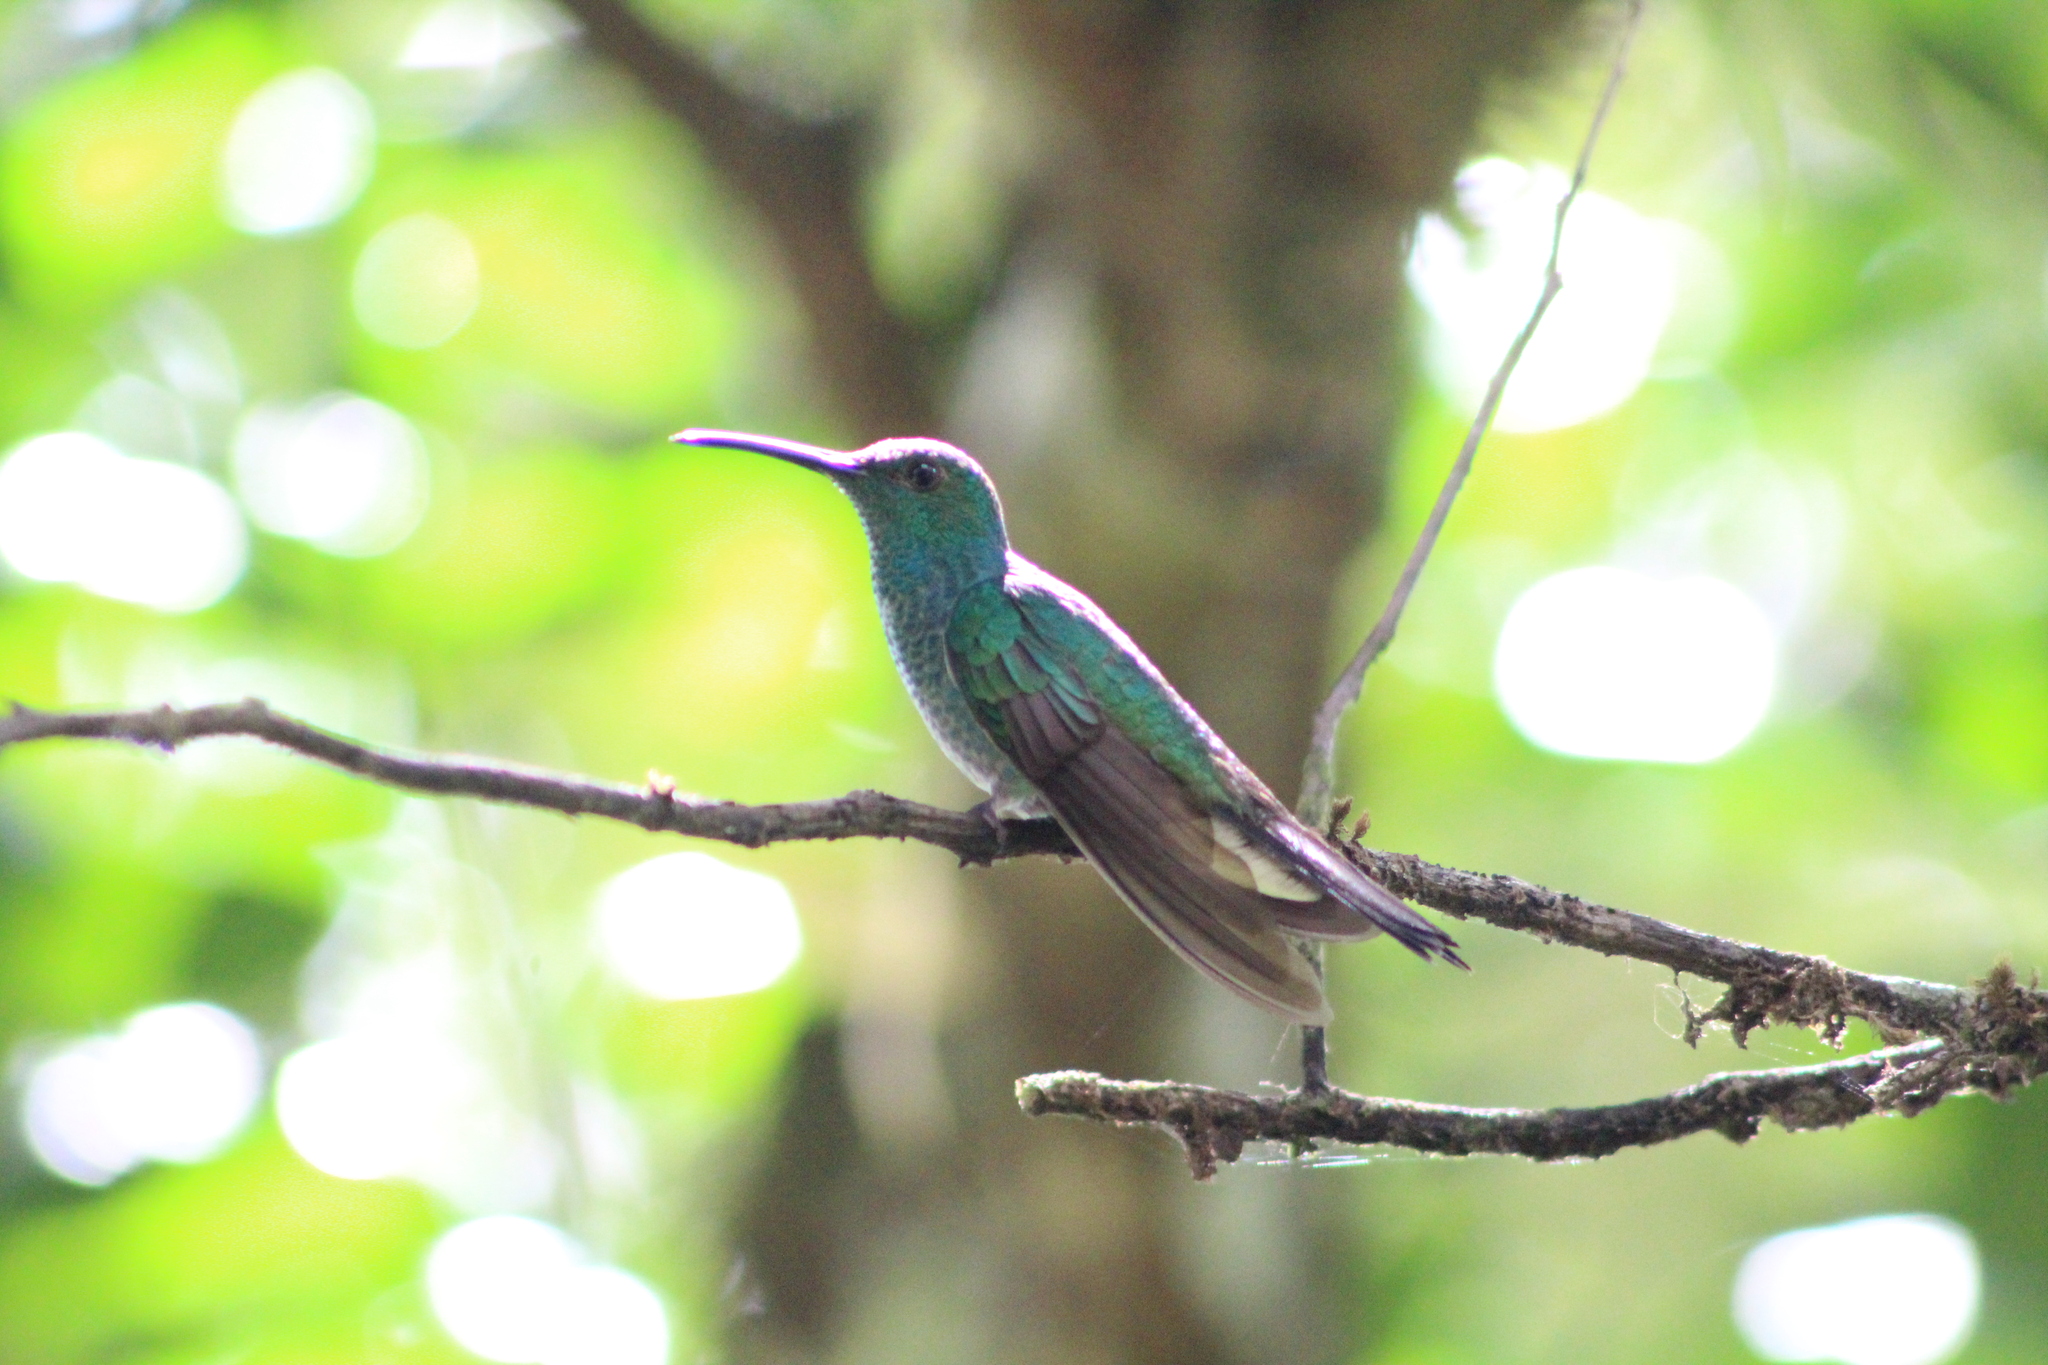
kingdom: Animalia
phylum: Chordata
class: Aves
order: Apodiformes
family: Trochilidae
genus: Chalybura
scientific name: Chalybura buffonii
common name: White-vented plumeleteer
